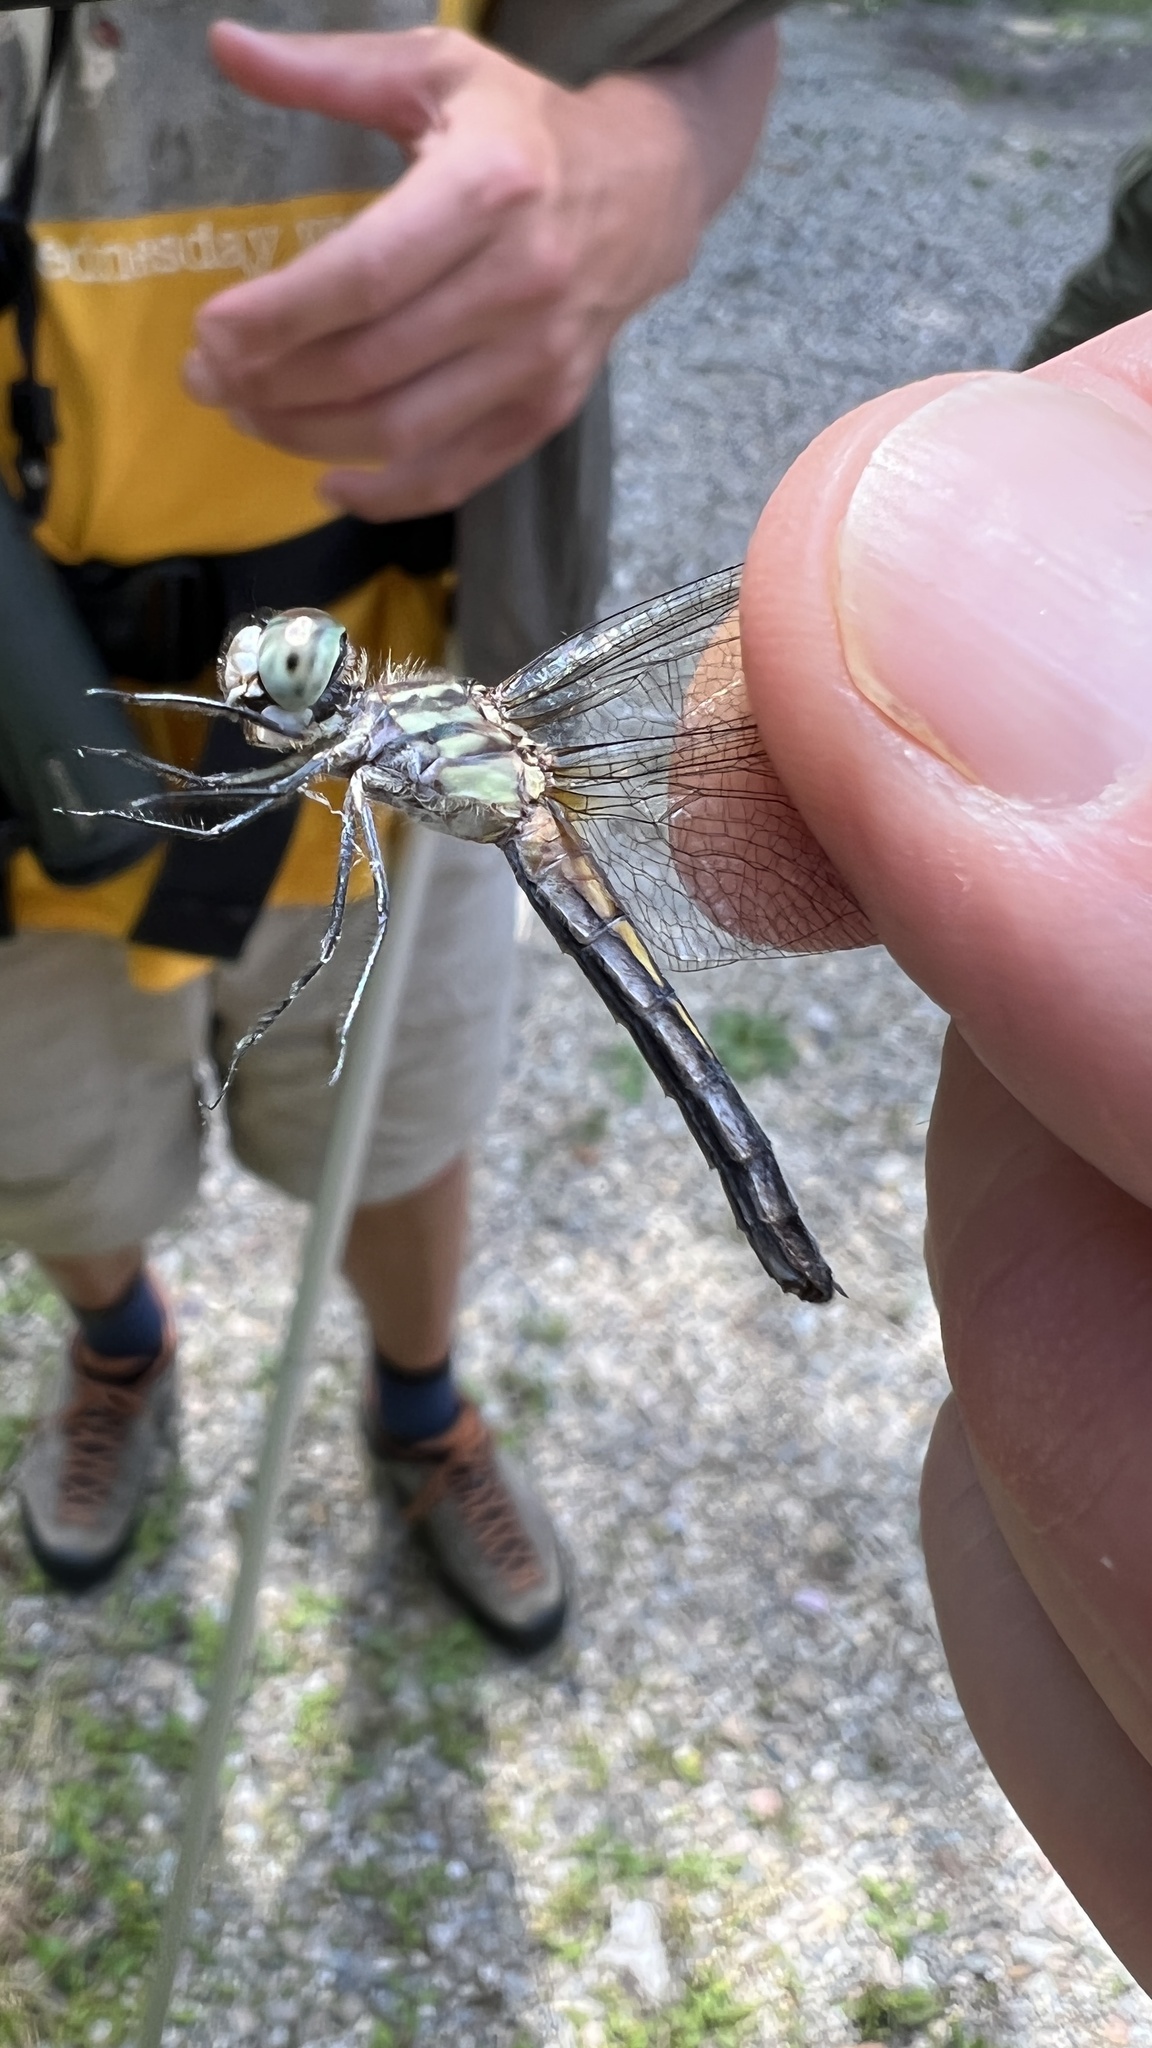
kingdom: Animalia
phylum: Arthropoda
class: Insecta
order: Odonata
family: Libellulidae
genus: Pachydiplax
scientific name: Pachydiplax longipennis
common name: Blue dasher
